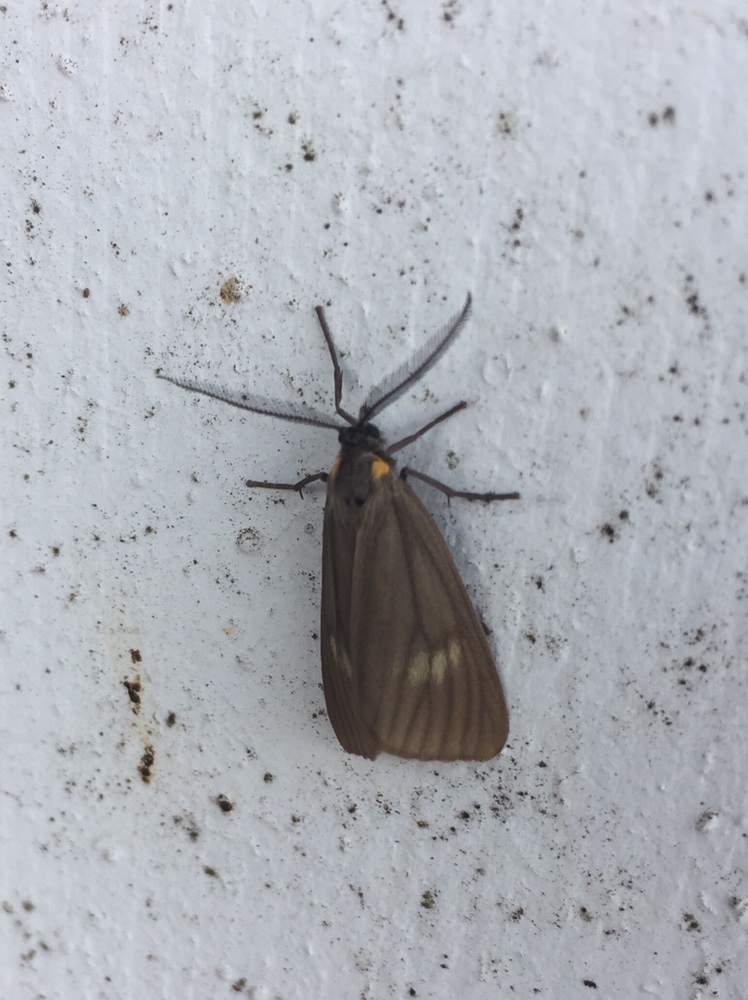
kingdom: Animalia
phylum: Arthropoda
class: Insecta
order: Lepidoptera
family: Notodontidae
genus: Phryganidia
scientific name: Phryganidia californica
